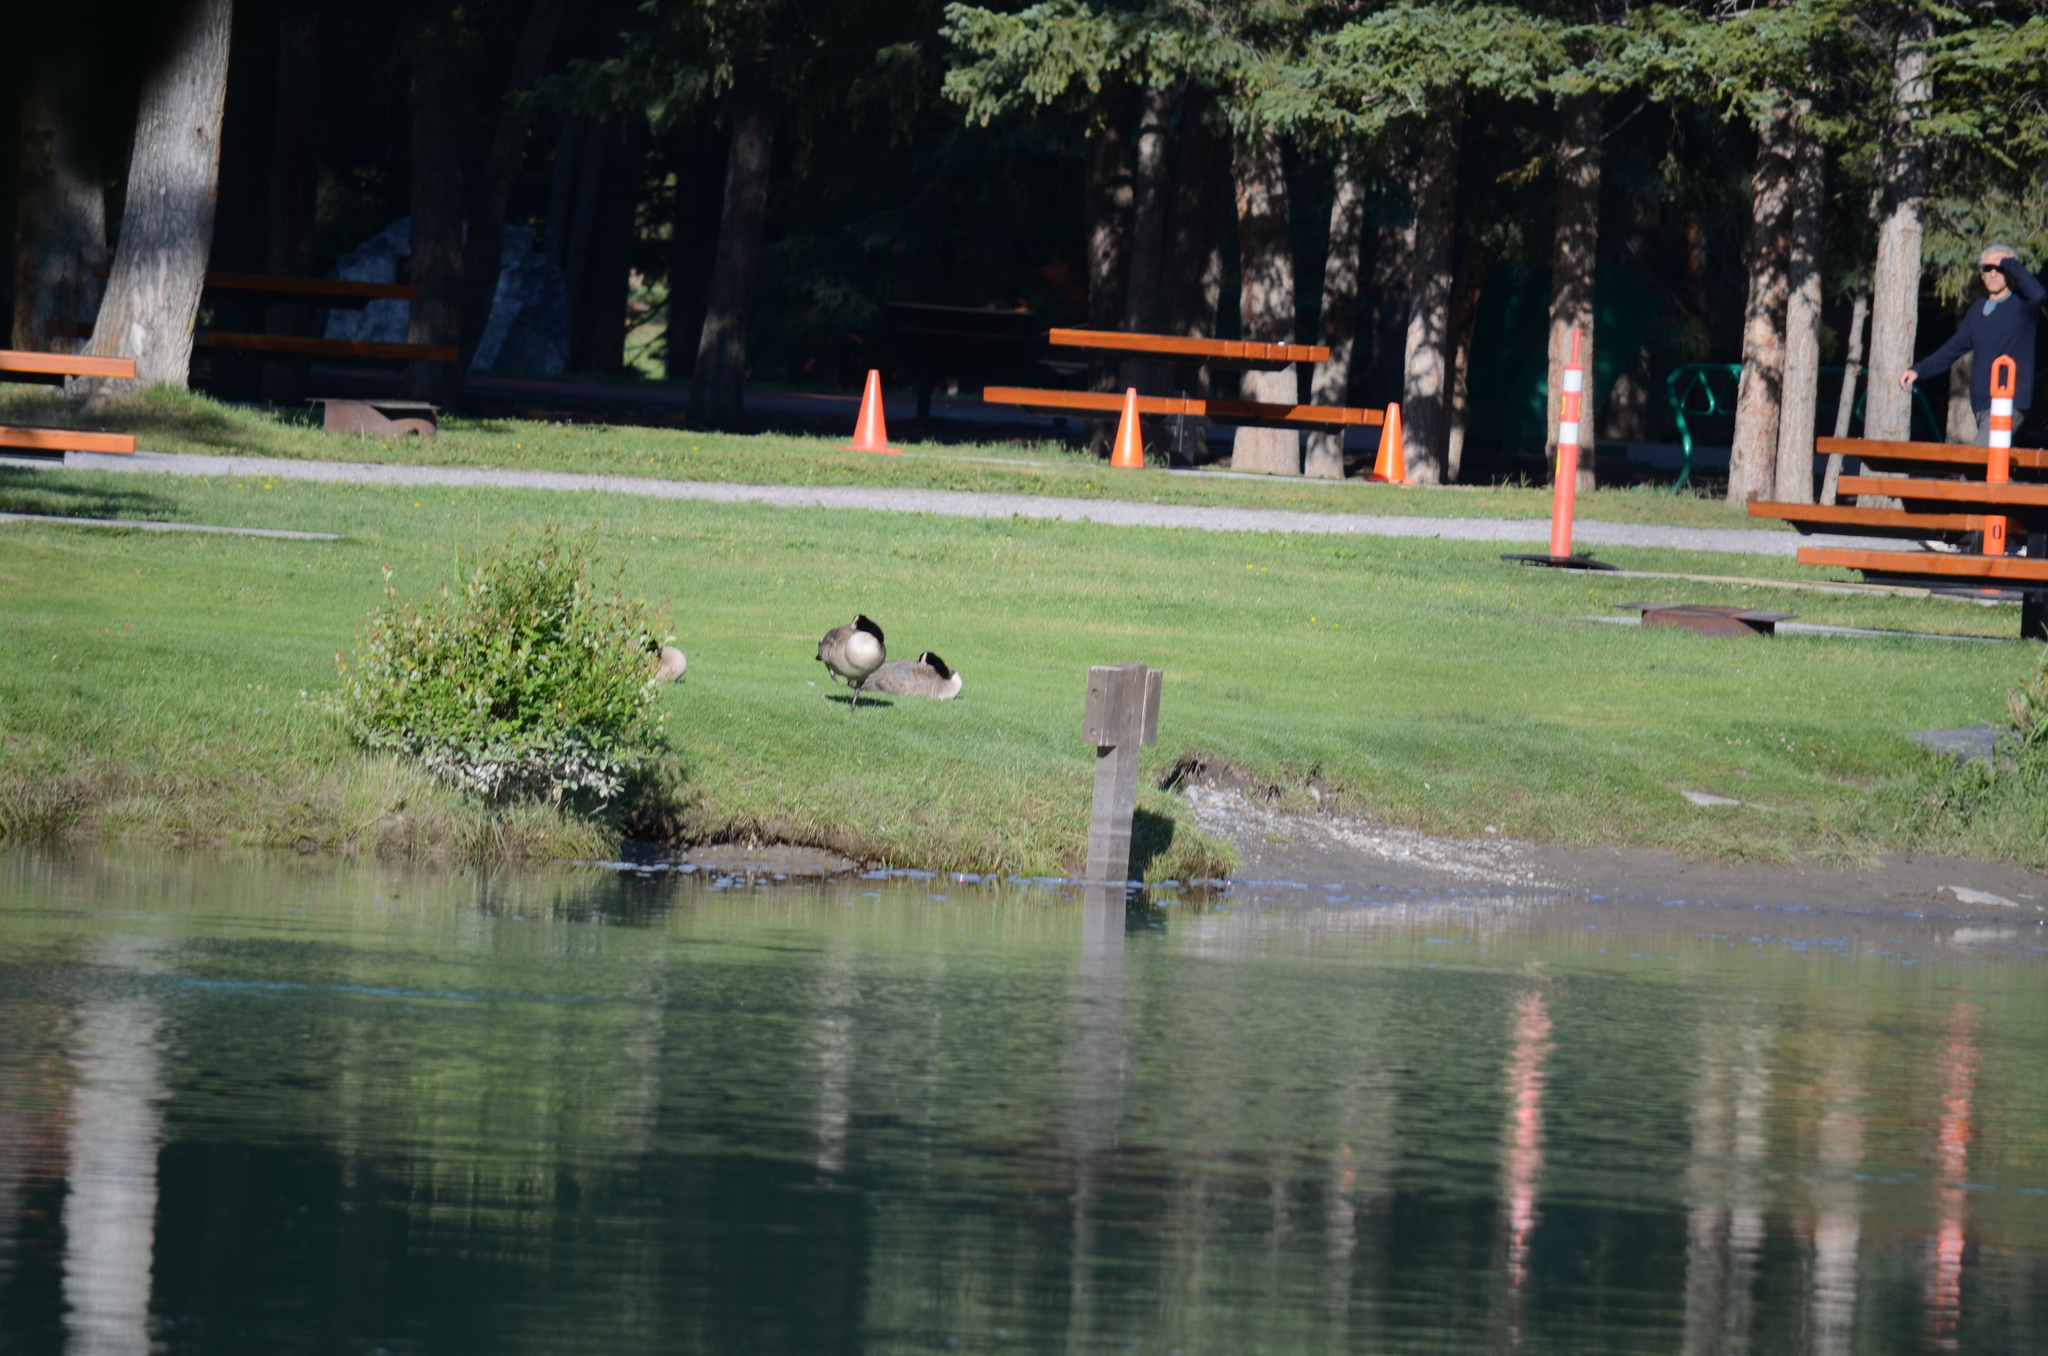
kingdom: Animalia
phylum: Chordata
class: Aves
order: Anseriformes
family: Anatidae
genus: Branta
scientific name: Branta canadensis
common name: Canada goose
